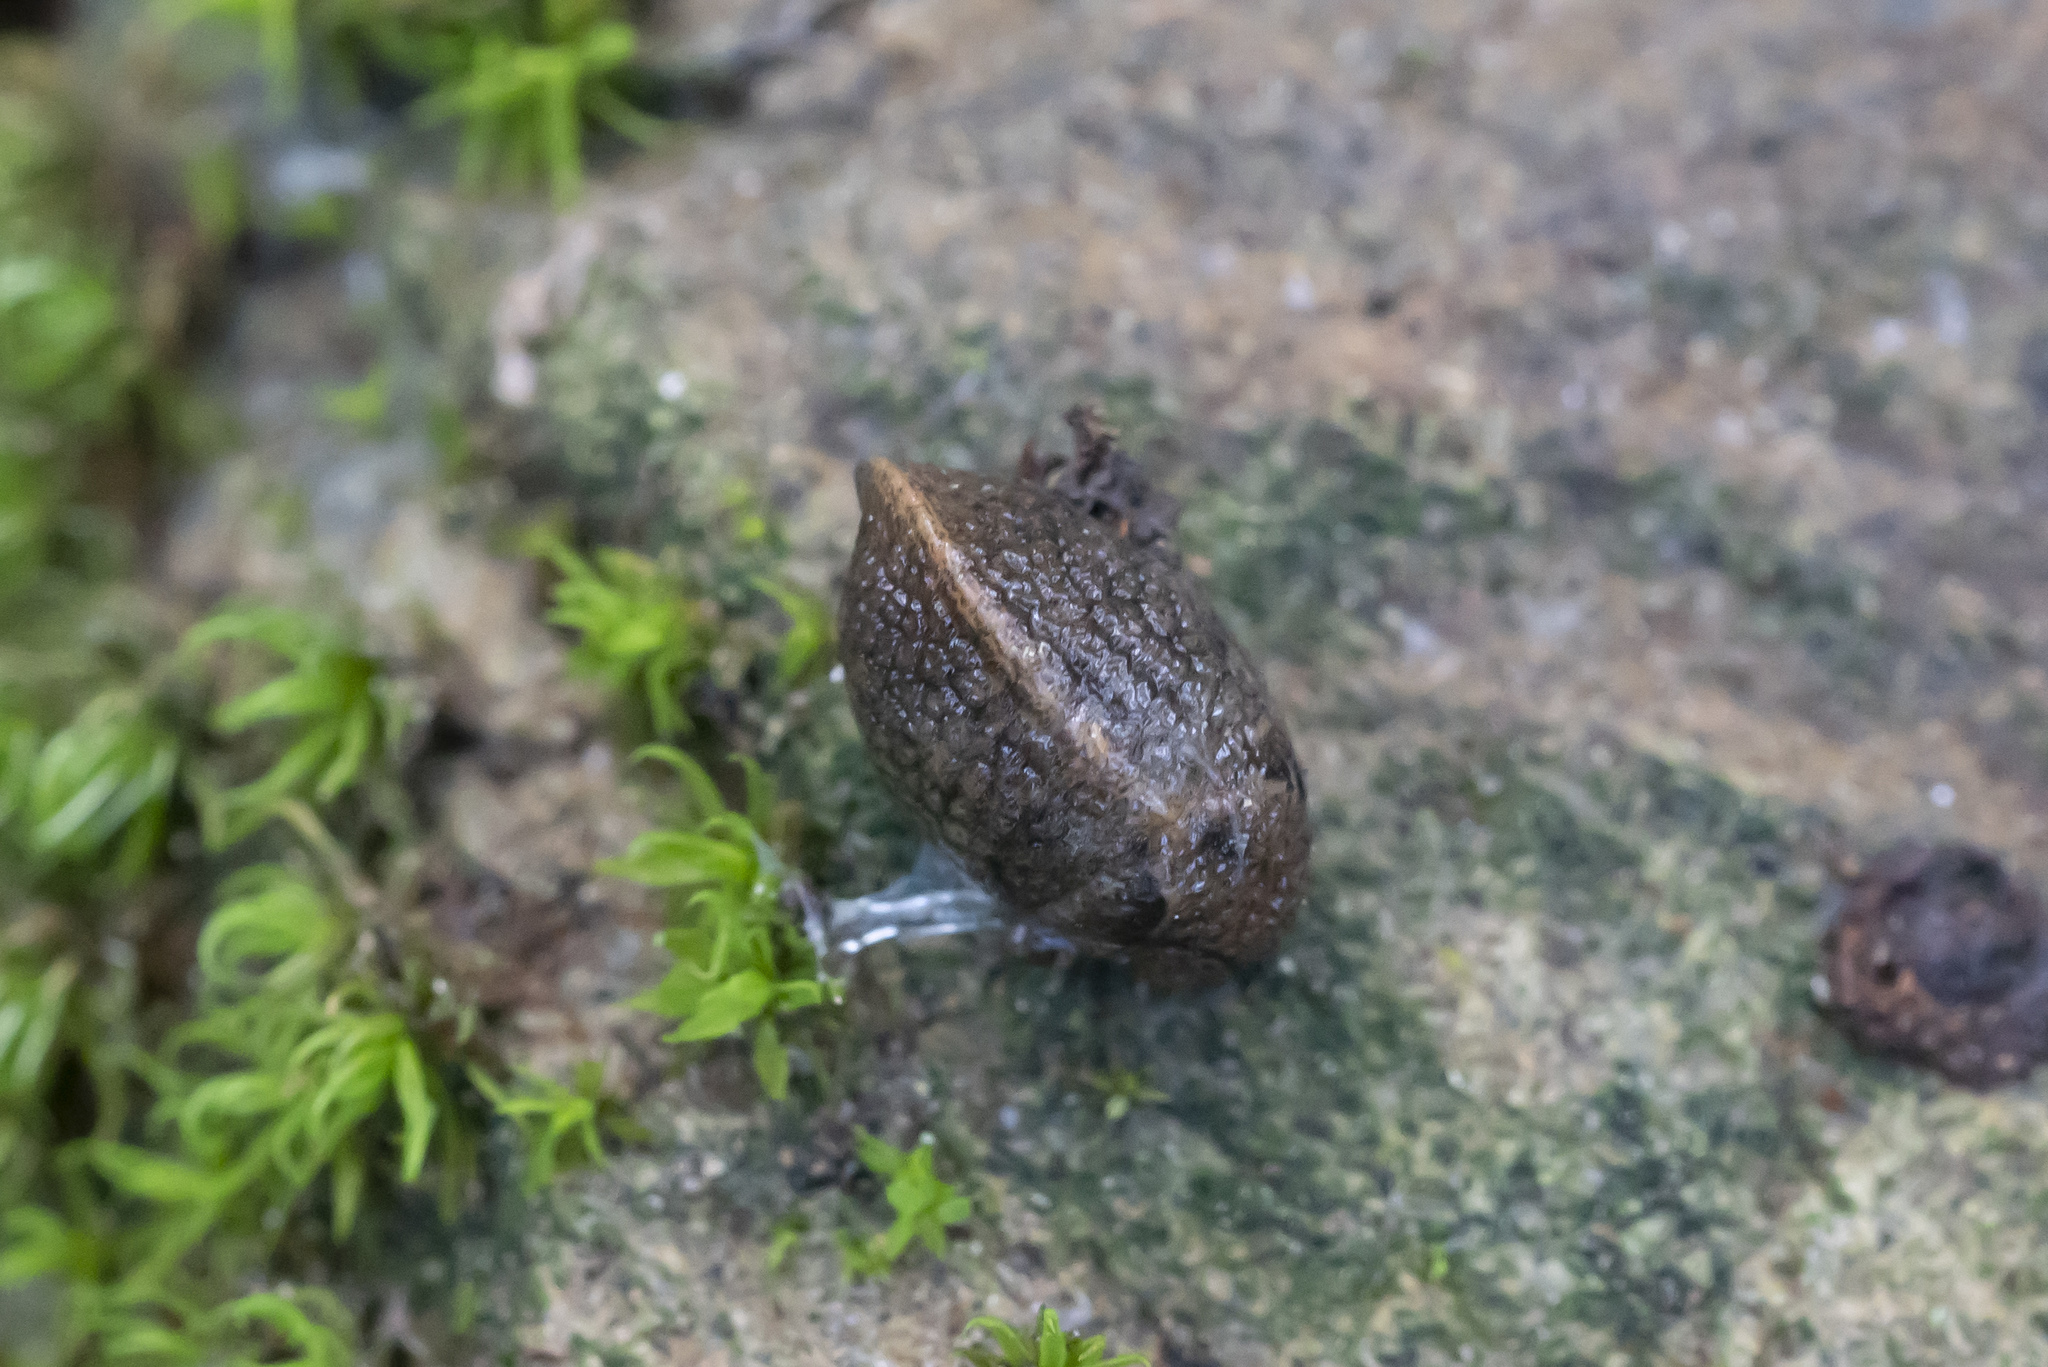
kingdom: Animalia
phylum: Mollusca
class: Gastropoda
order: Stylommatophora
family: Milacidae
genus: Milax
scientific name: Milax altenai
